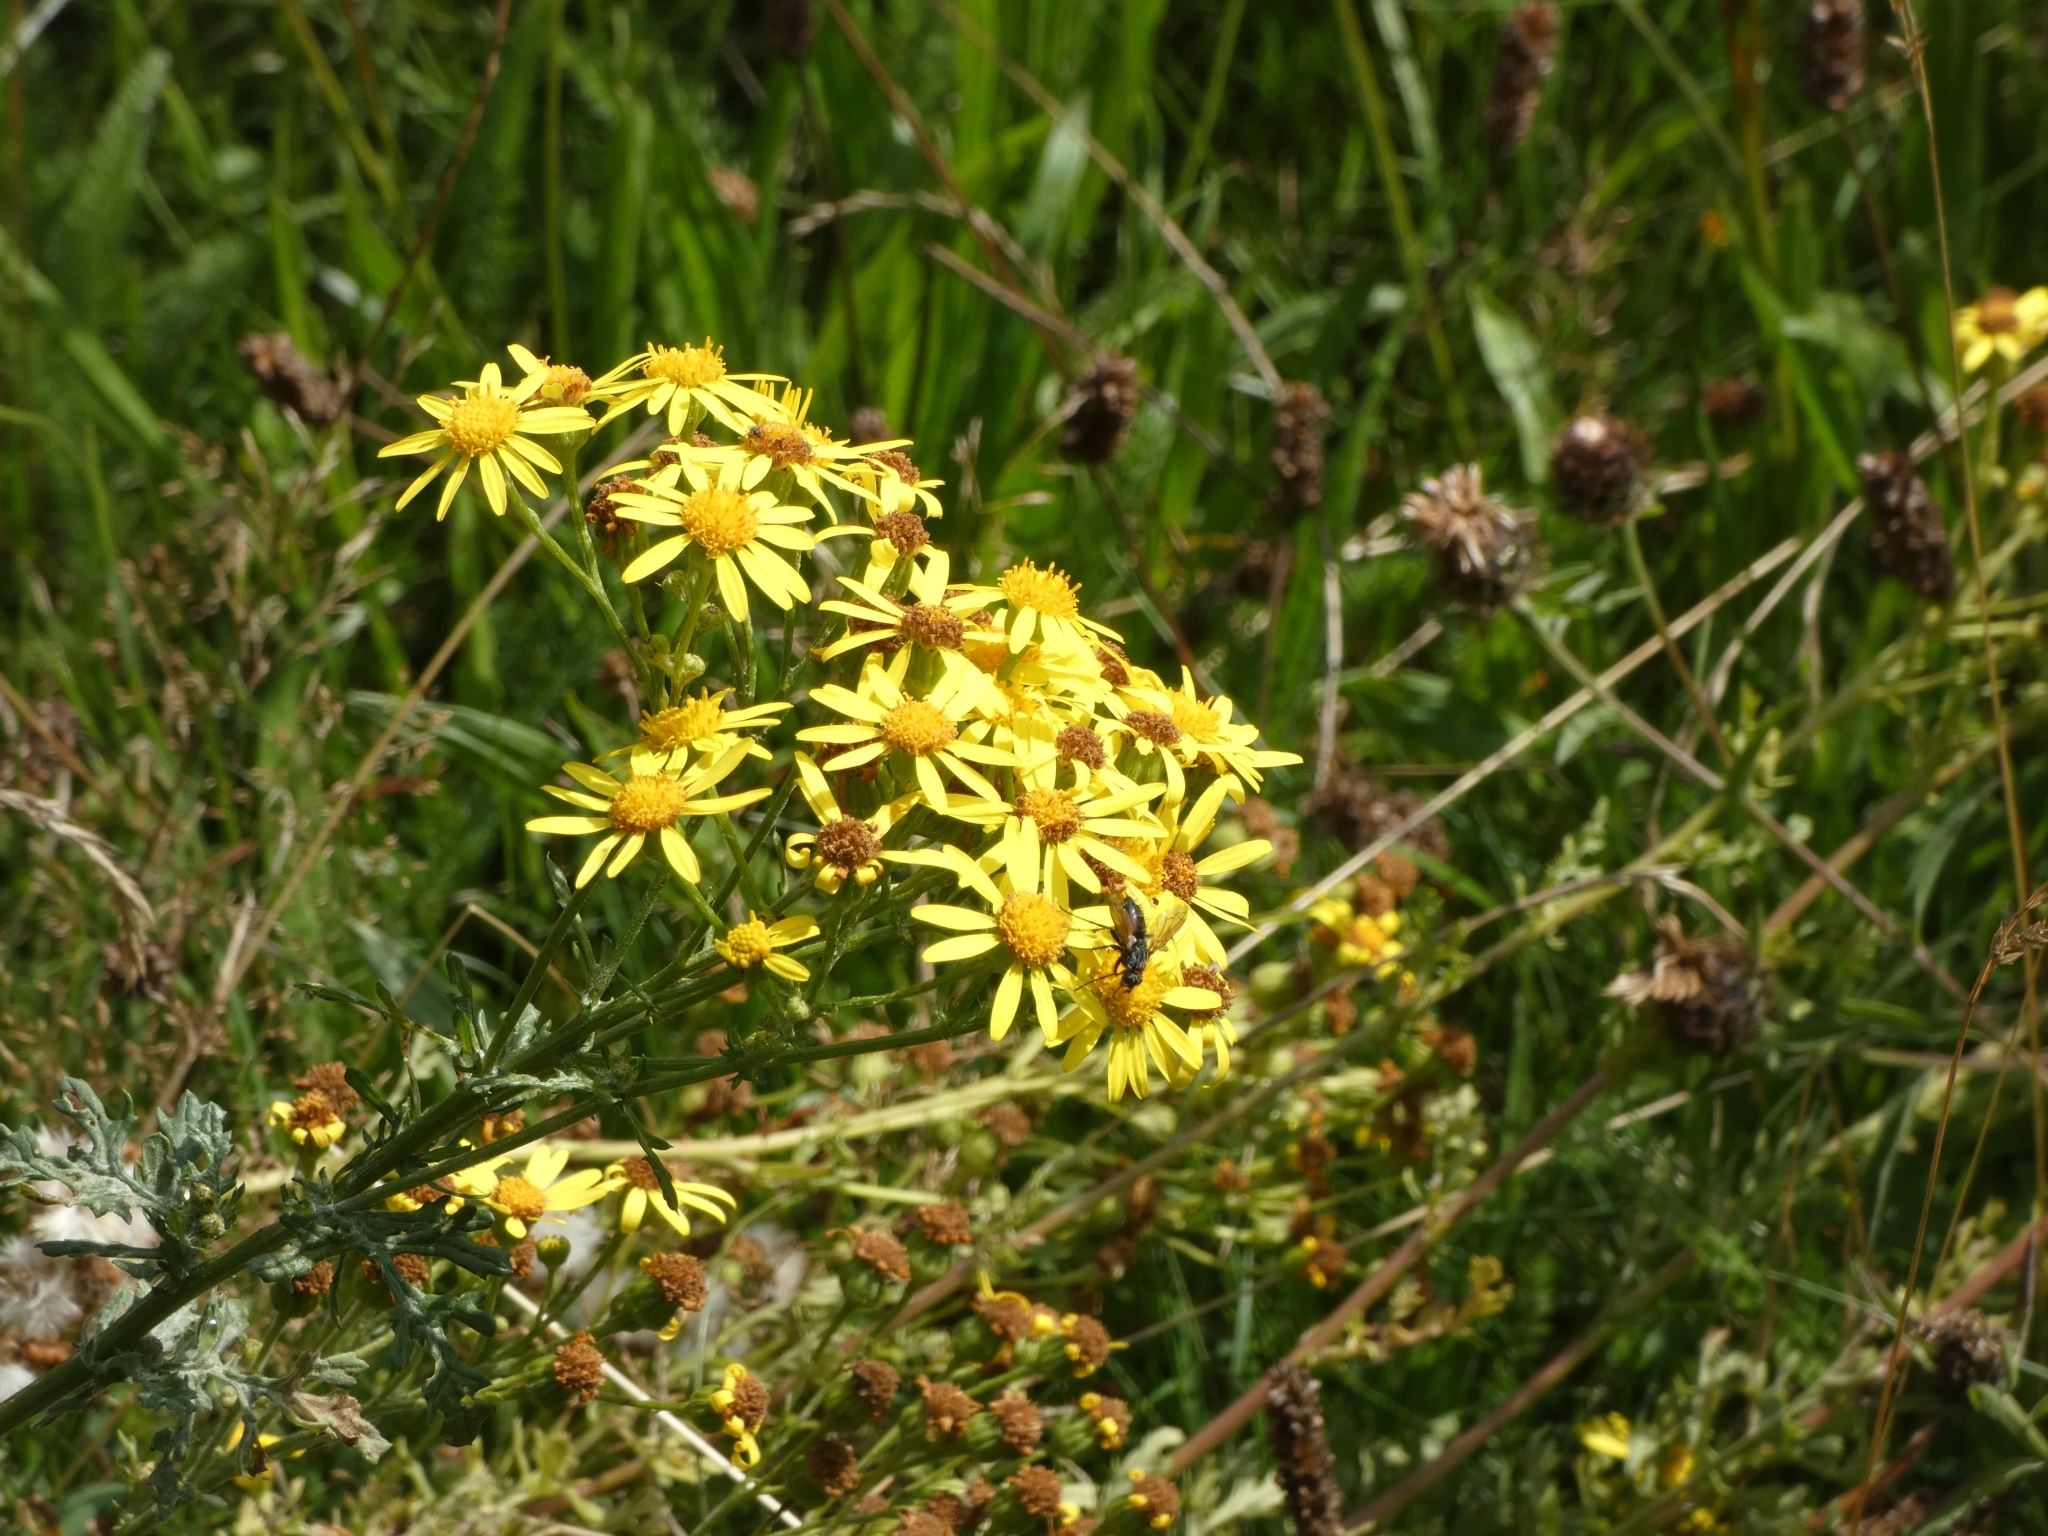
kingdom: Plantae
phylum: Tracheophyta
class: Magnoliopsida
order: Asterales
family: Asteraceae
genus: Jacobaea
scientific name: Jacobaea vulgaris
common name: Stinking willie
